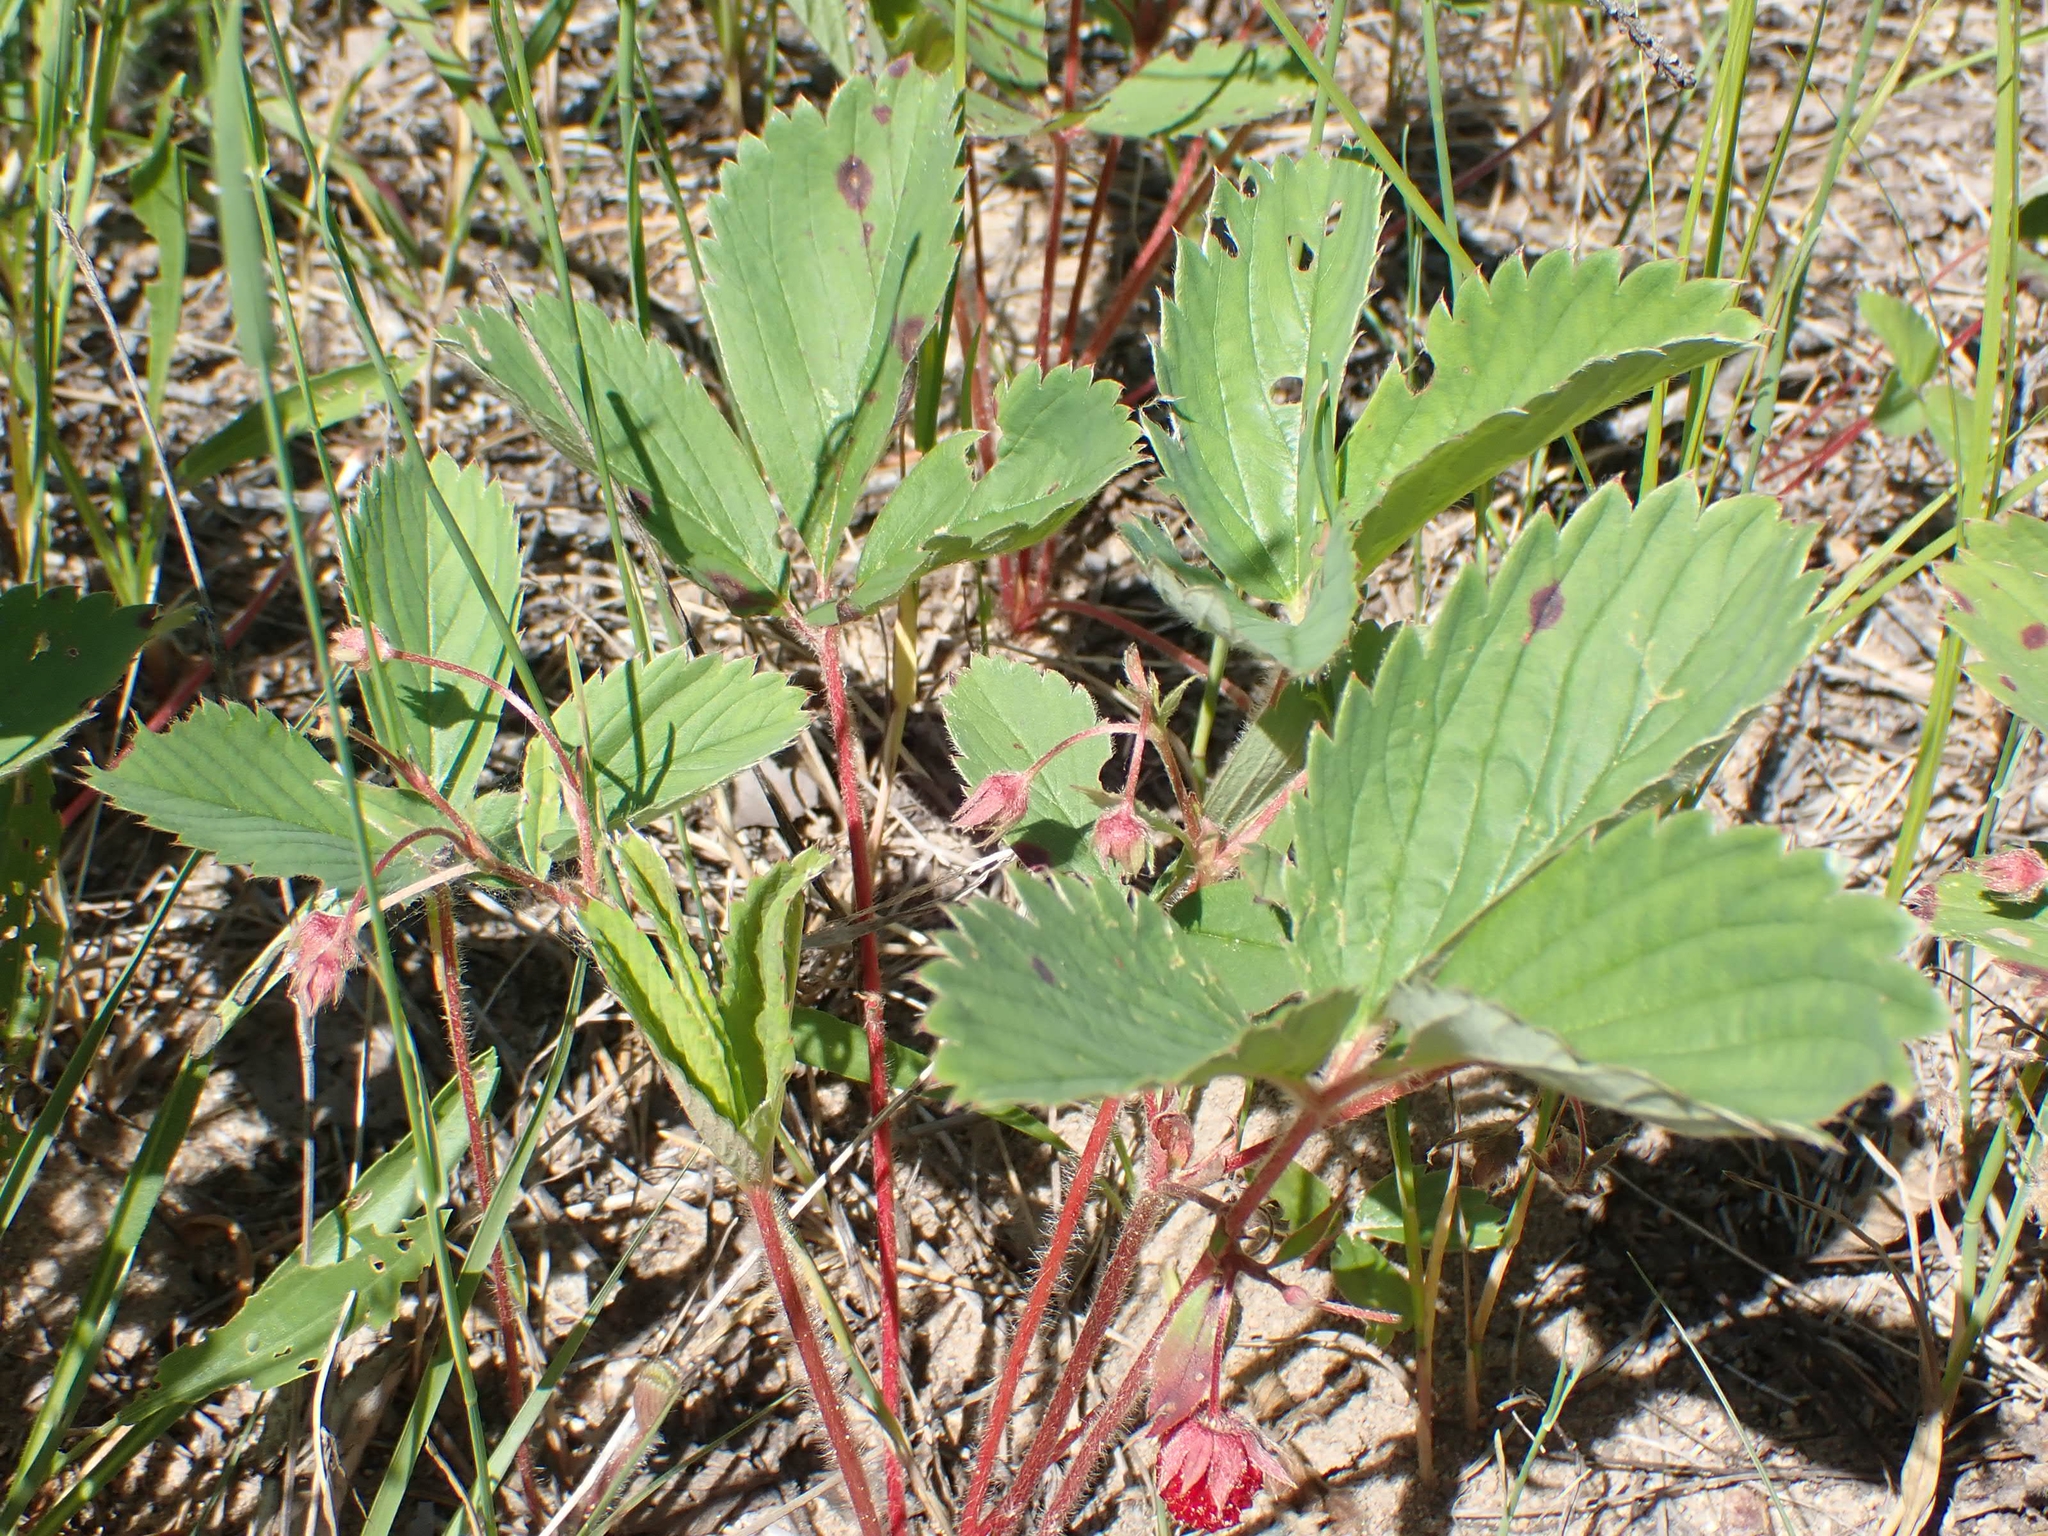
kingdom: Plantae
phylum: Tracheophyta
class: Magnoliopsida
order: Rosales
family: Rosaceae
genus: Fragaria
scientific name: Fragaria virginiana
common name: Thickleaved wild strawberry
